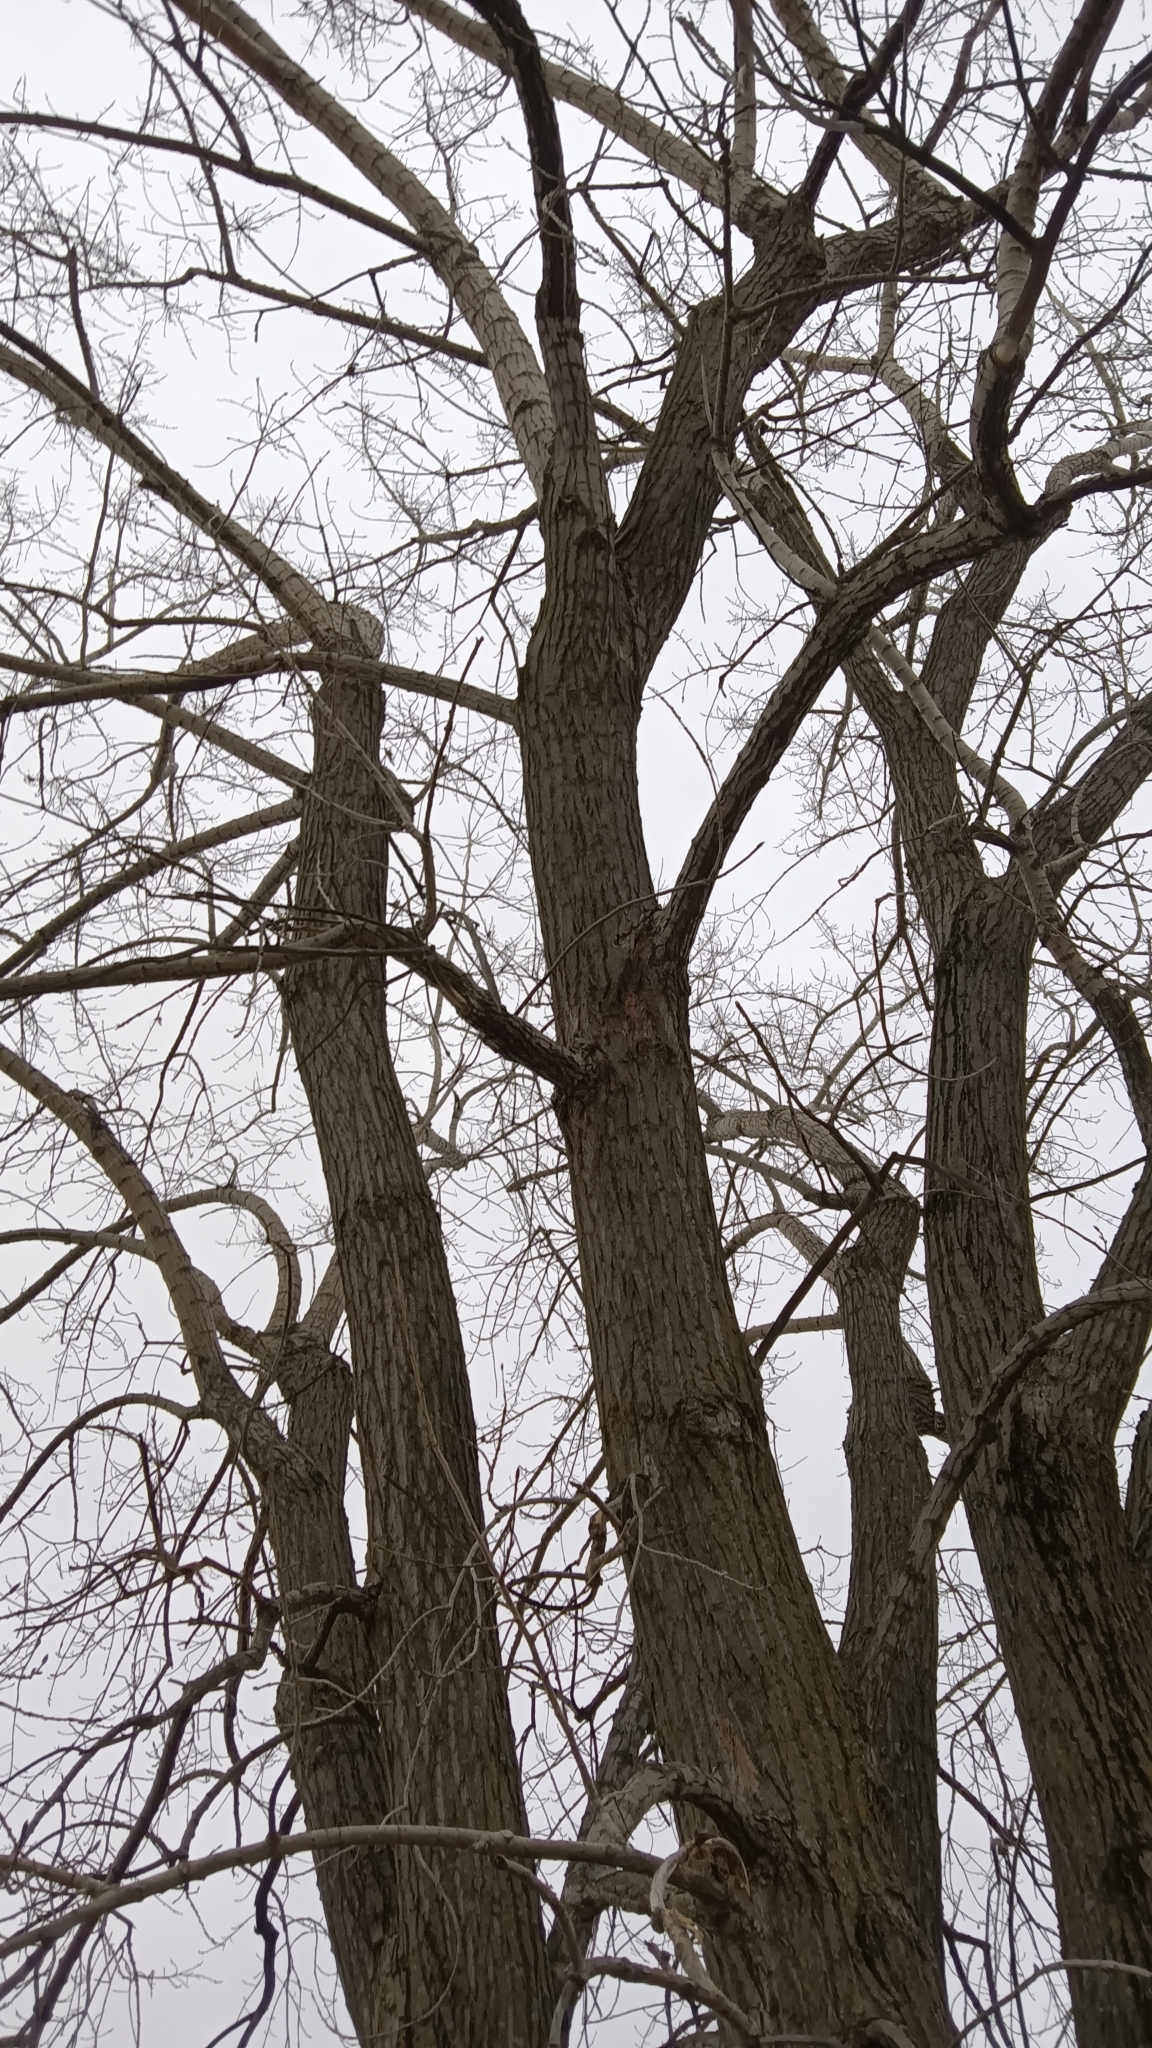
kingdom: Plantae
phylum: Tracheophyta
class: Magnoliopsida
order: Malpighiales
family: Salicaceae
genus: Populus
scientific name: Populus deltoides
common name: Eastern cottonwood
